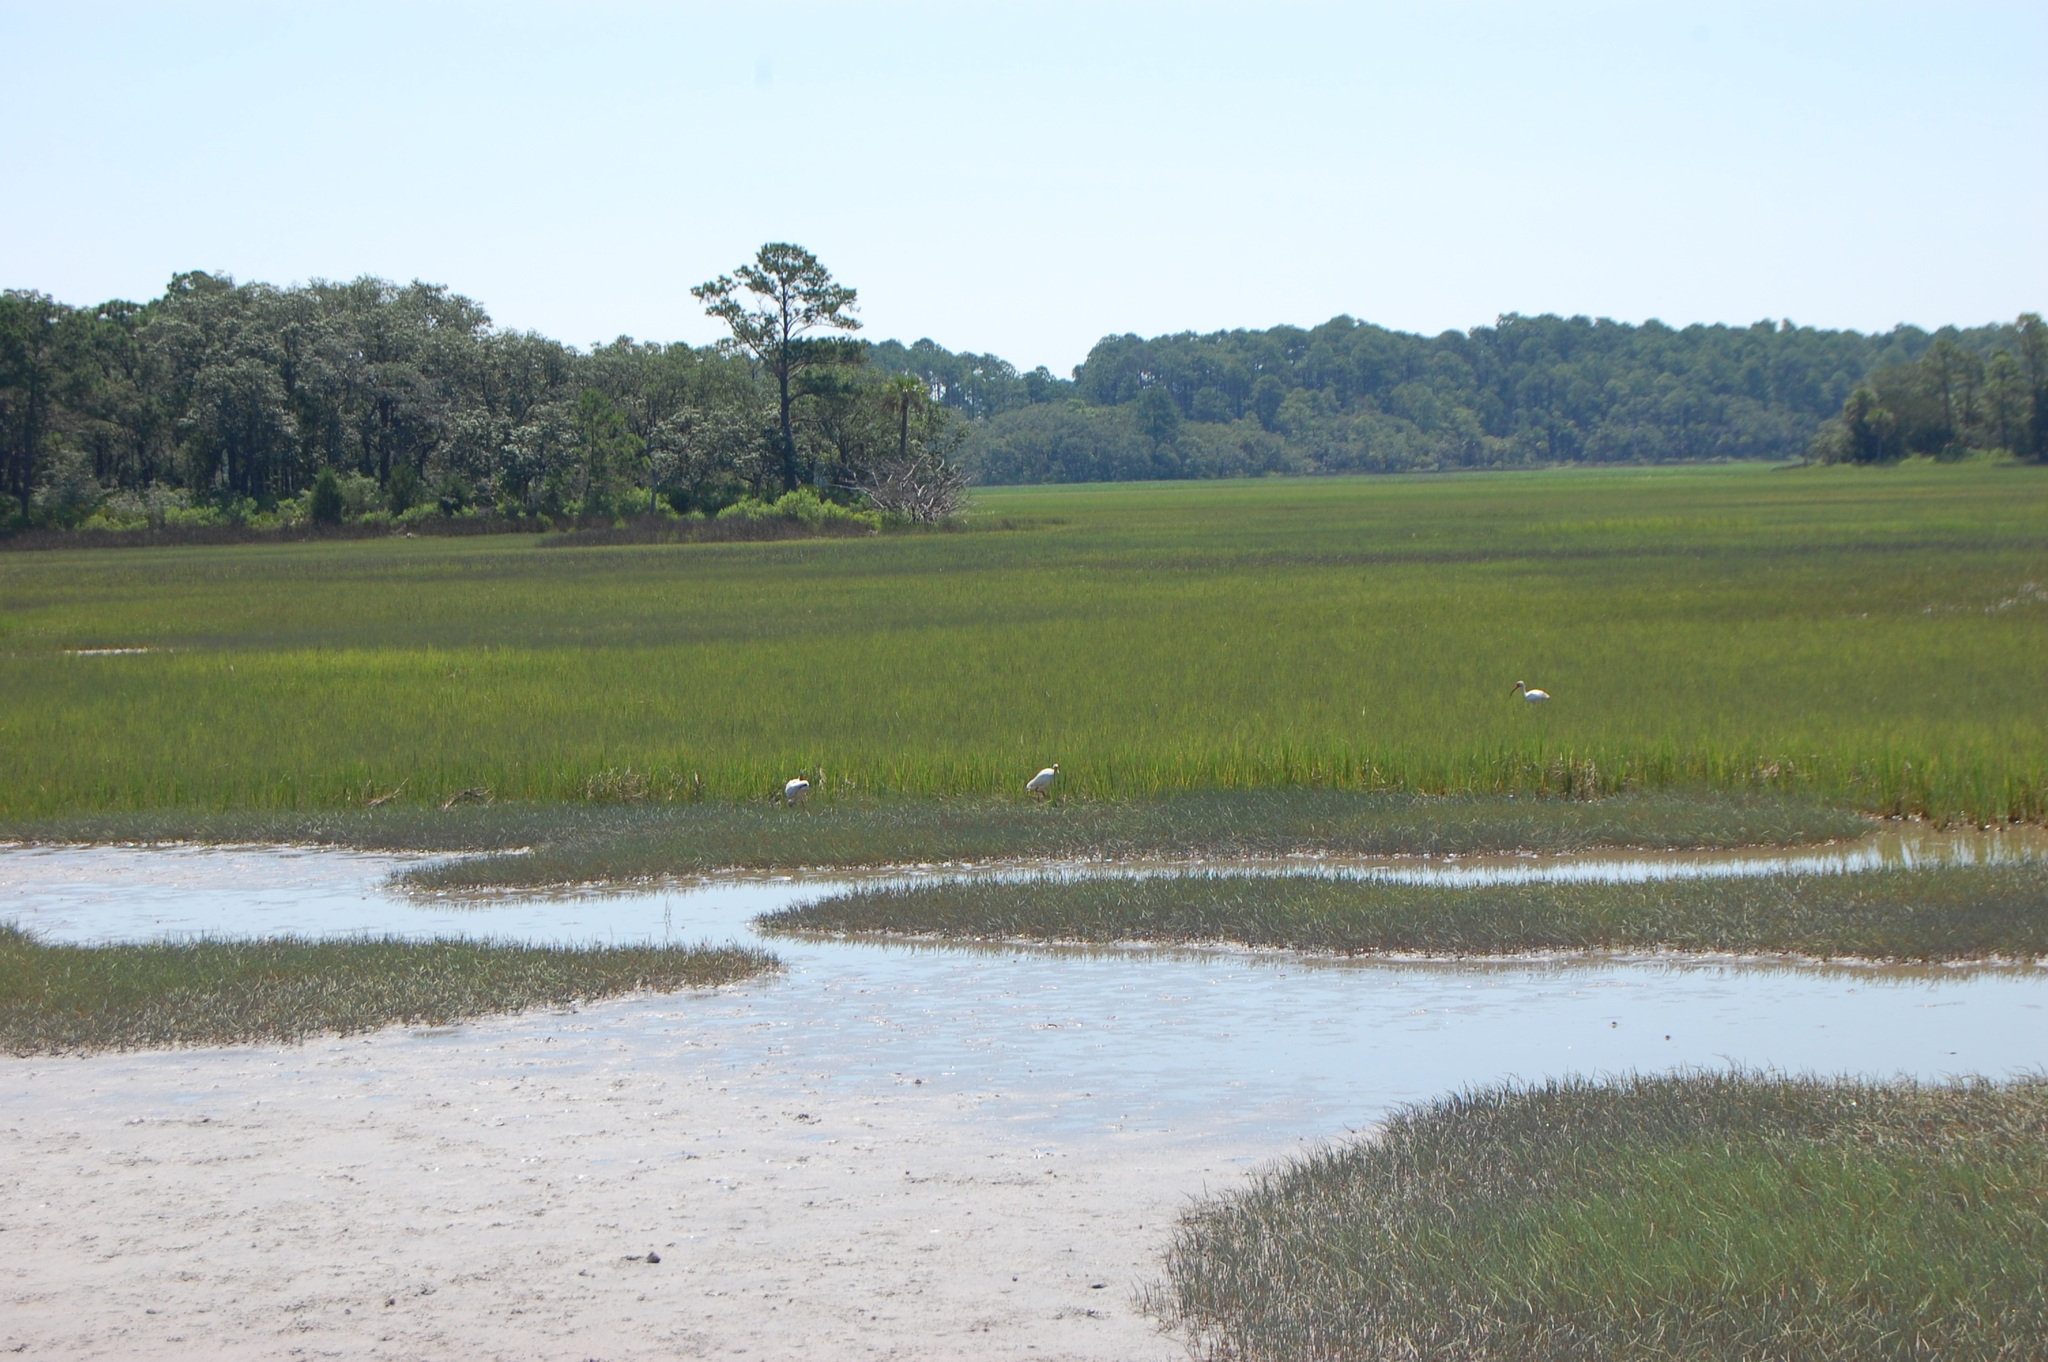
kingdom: Animalia
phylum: Chordata
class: Aves
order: Pelecaniformes
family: Threskiornithidae
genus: Eudocimus
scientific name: Eudocimus albus
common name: White ibis
